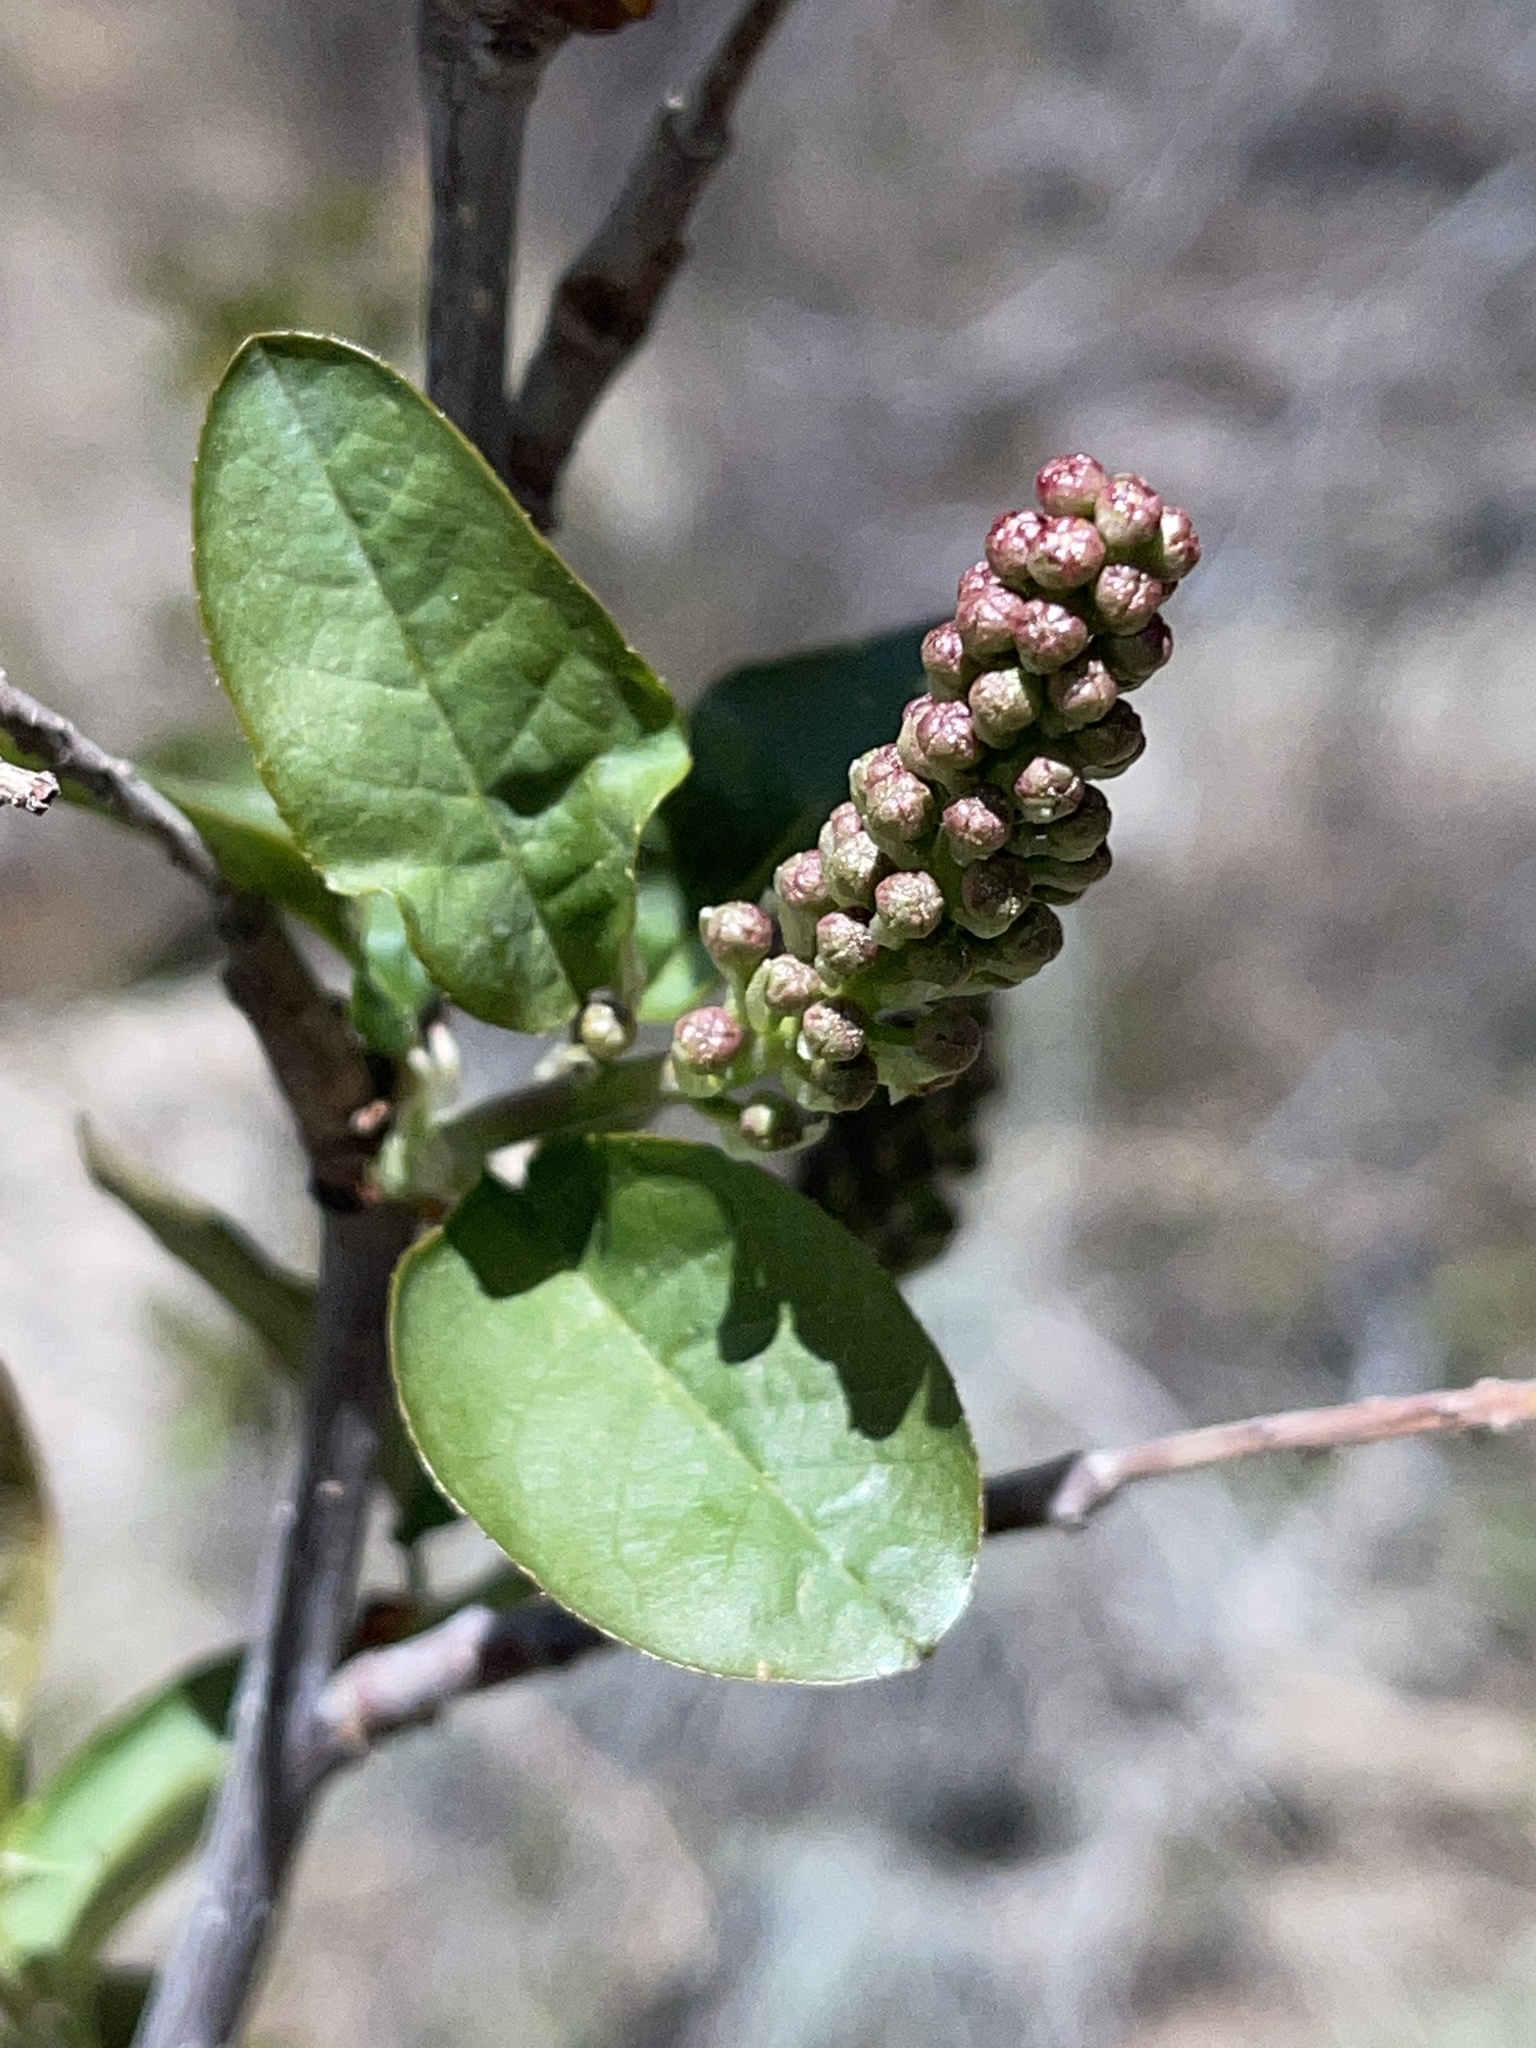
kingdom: Plantae
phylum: Tracheophyta
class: Magnoliopsida
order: Rosales
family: Rosaceae
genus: Prunus
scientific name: Prunus virginiana
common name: Chokecherry
